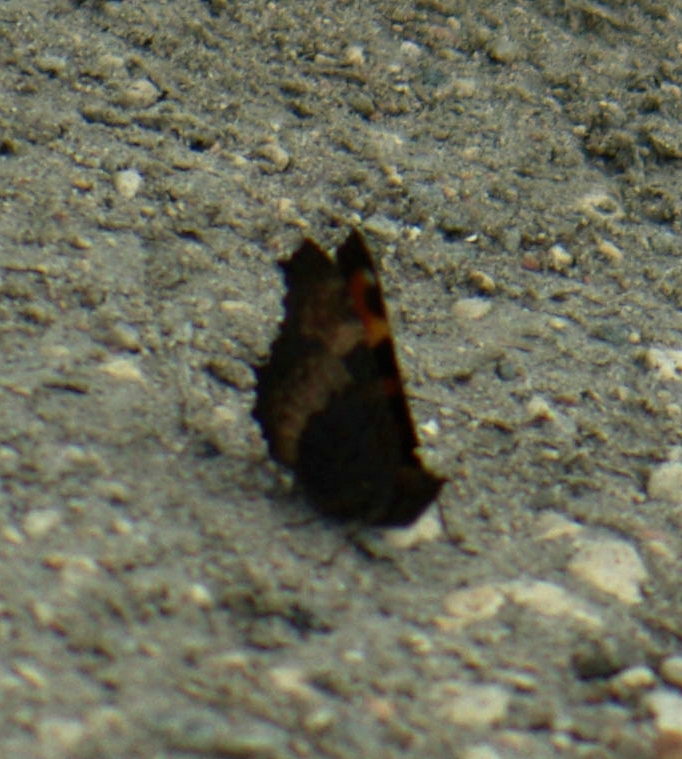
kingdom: Animalia
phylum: Arthropoda
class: Insecta
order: Lepidoptera
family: Nymphalidae
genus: Aglais
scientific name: Aglais milberti
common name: Milbert's tortoiseshell
